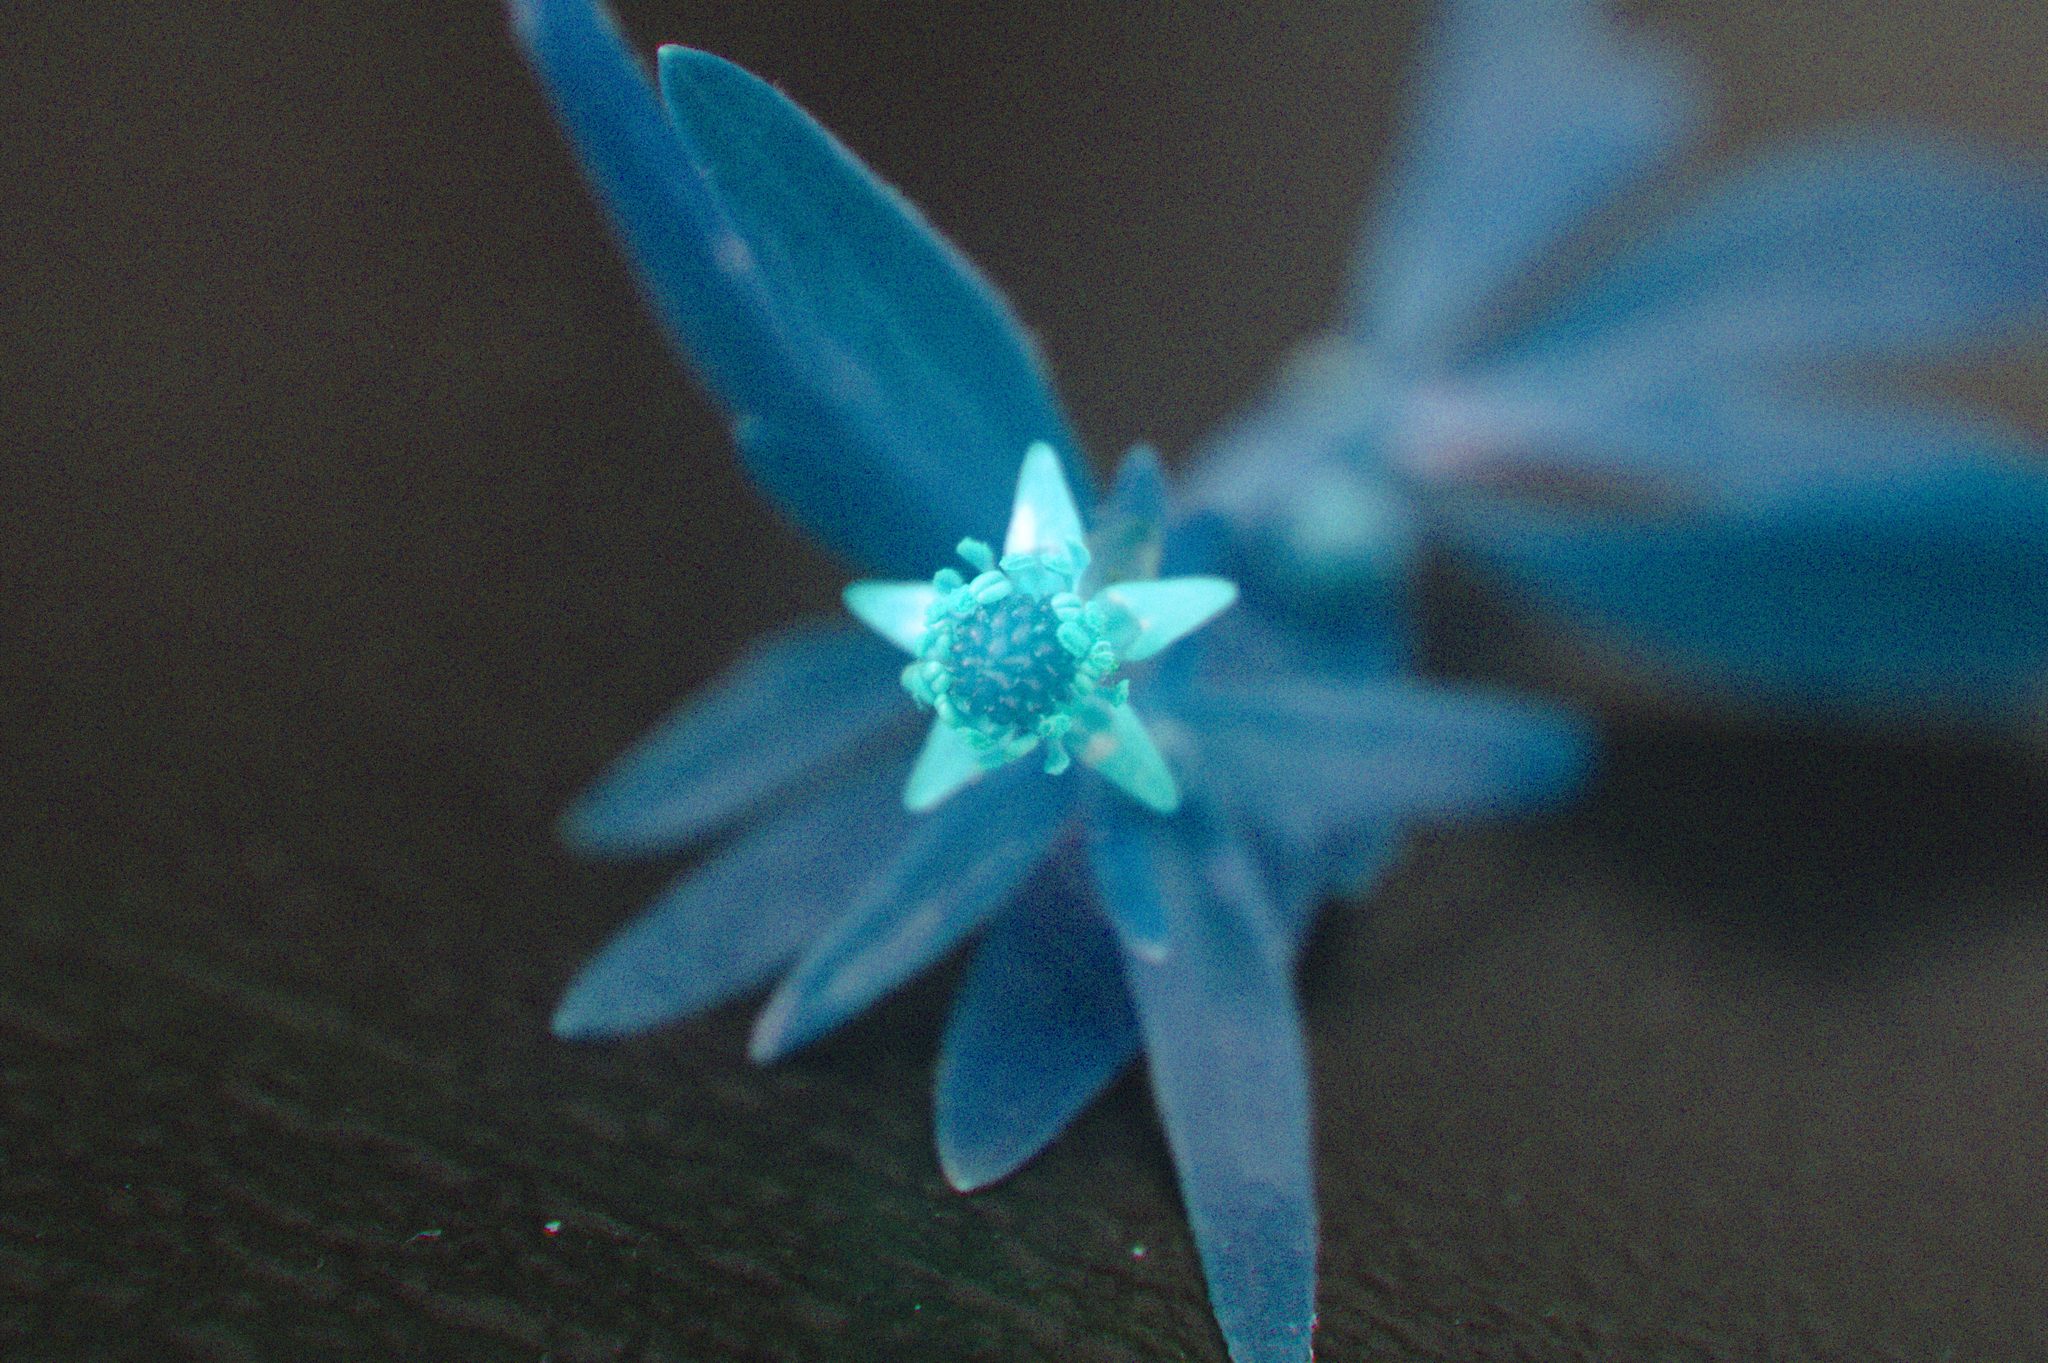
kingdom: Plantae
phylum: Tracheophyta
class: Magnoliopsida
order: Ranunculales
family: Ranunculaceae
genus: Ranunculus
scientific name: Ranunculus abortivus
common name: Early wood buttercup
